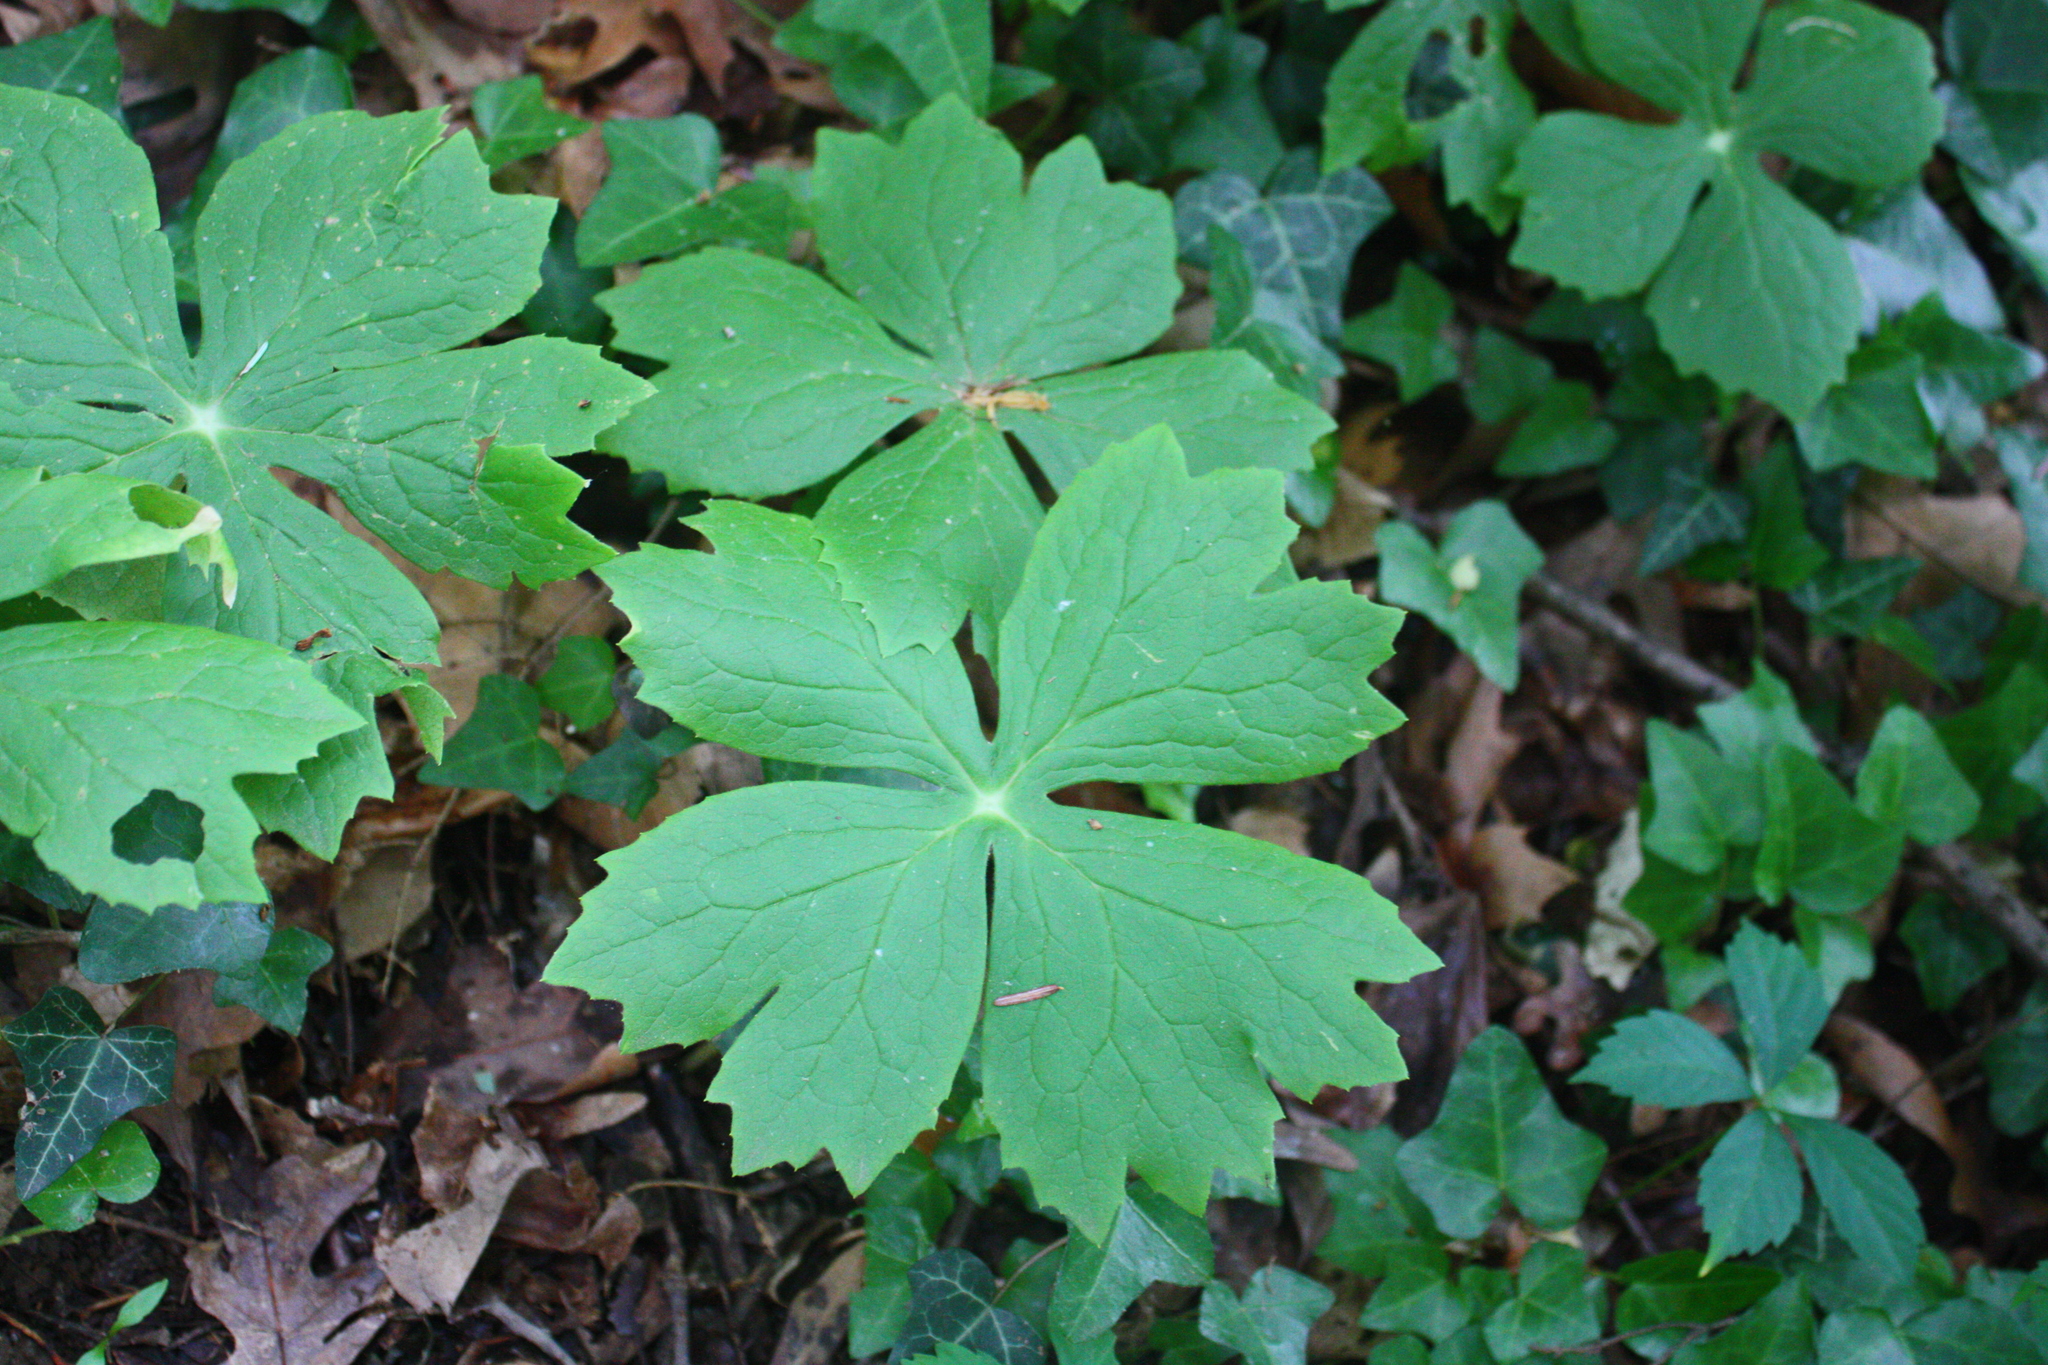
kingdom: Plantae
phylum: Tracheophyta
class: Magnoliopsida
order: Ranunculales
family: Berberidaceae
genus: Podophyllum
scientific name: Podophyllum peltatum
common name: Wild mandrake
